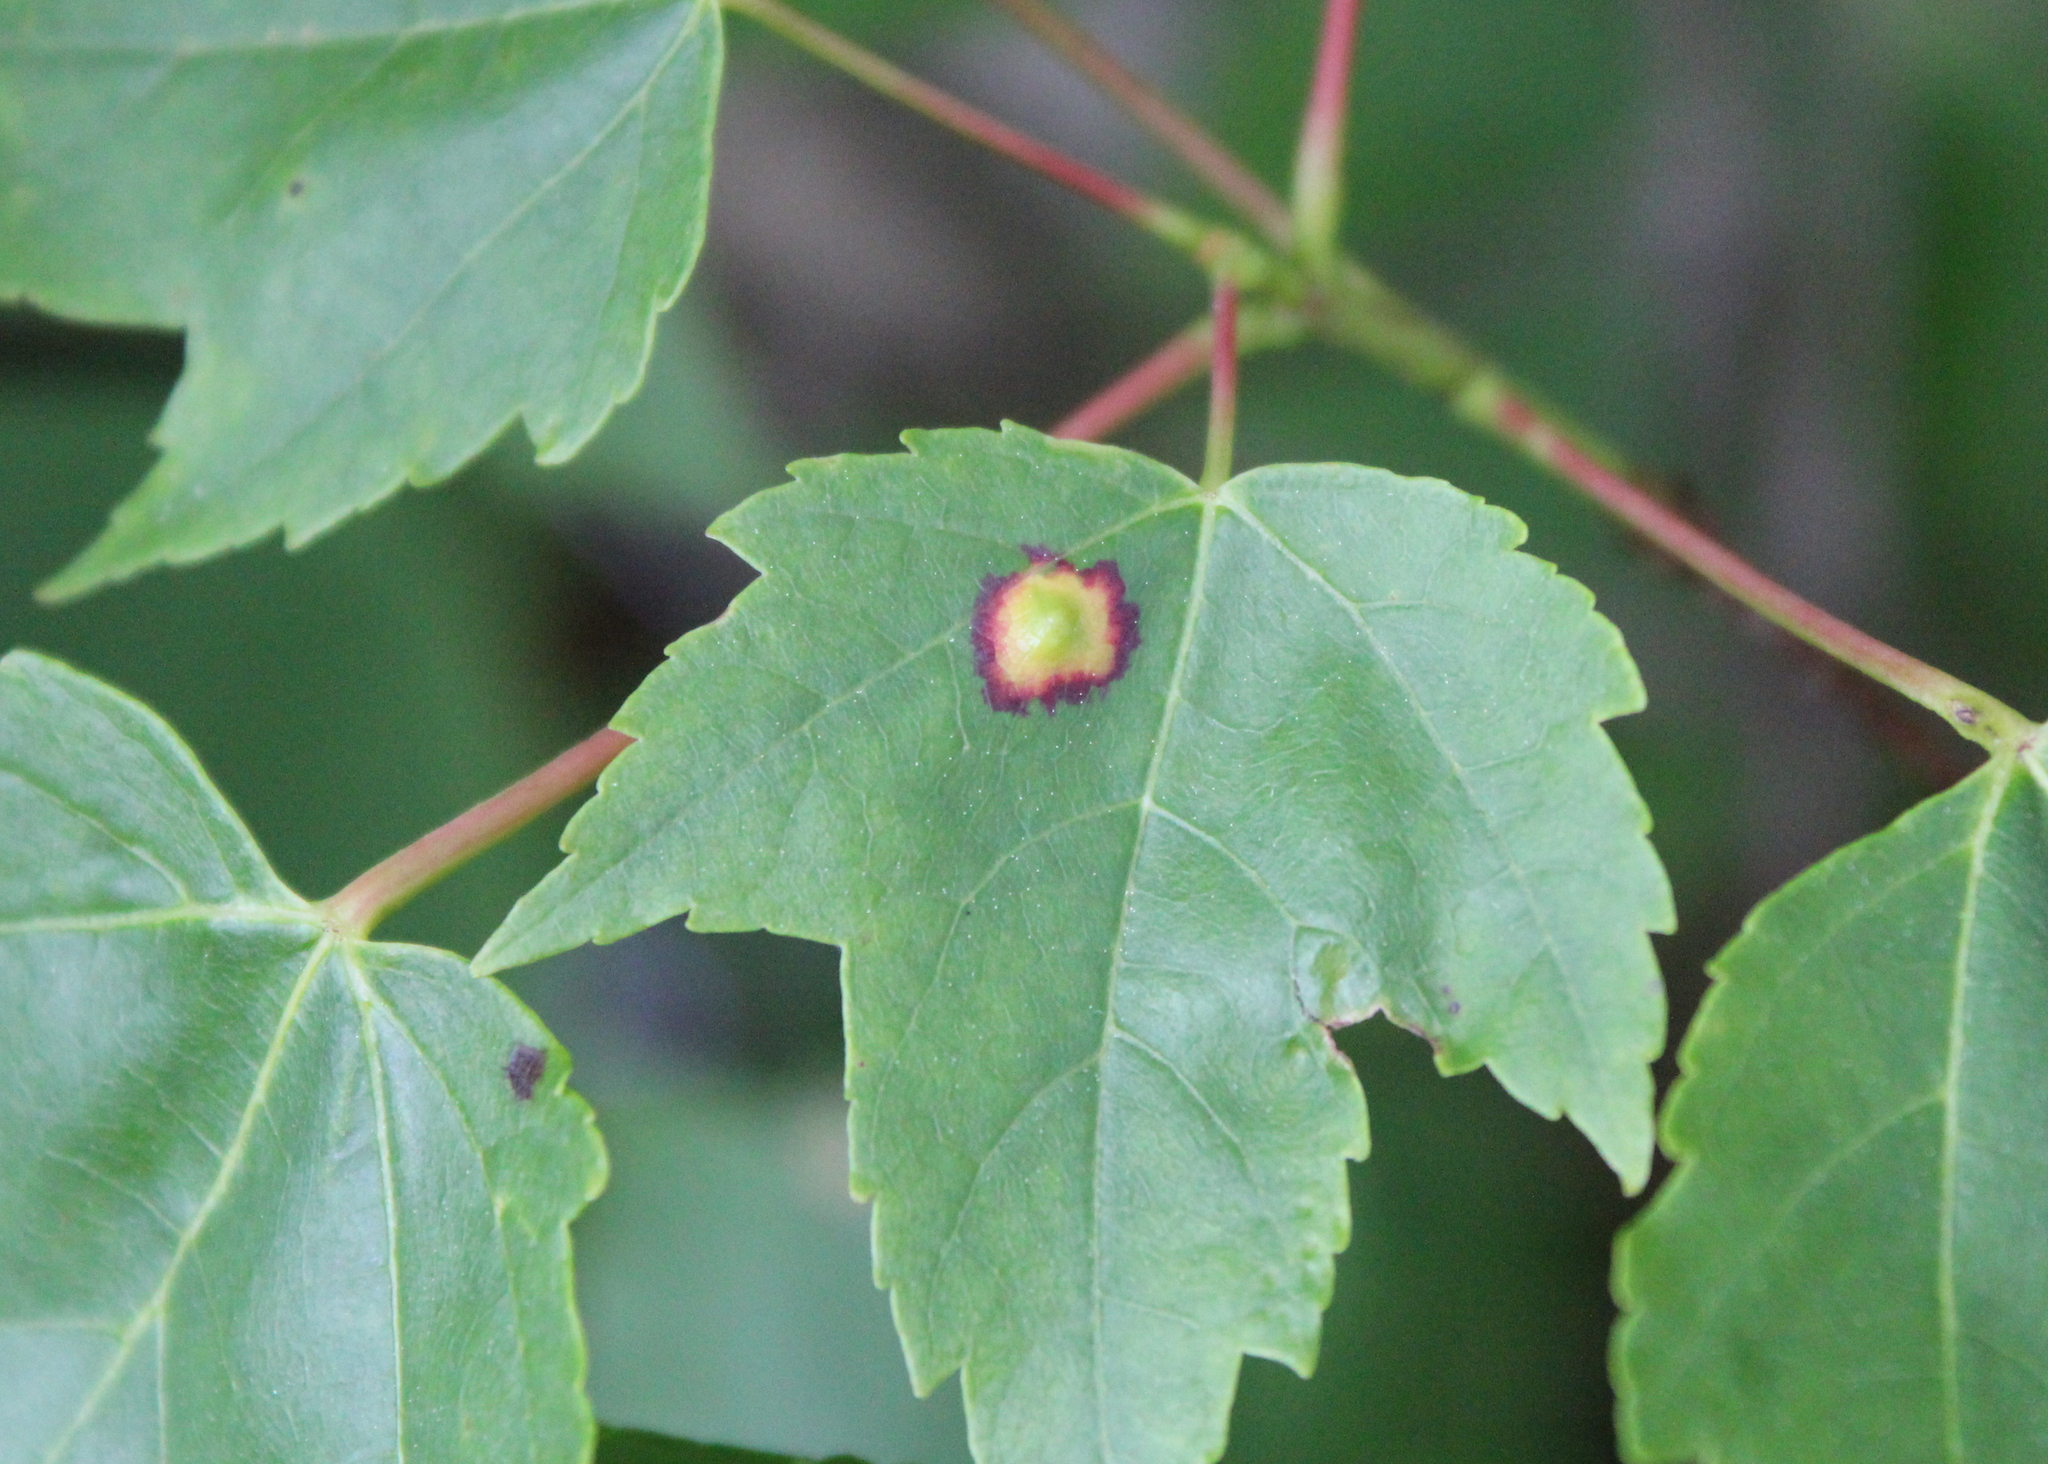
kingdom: Animalia
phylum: Arthropoda
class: Insecta
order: Diptera
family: Cecidomyiidae
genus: Acericecis
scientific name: Acericecis ocellaris
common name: Ocellate gall midge
